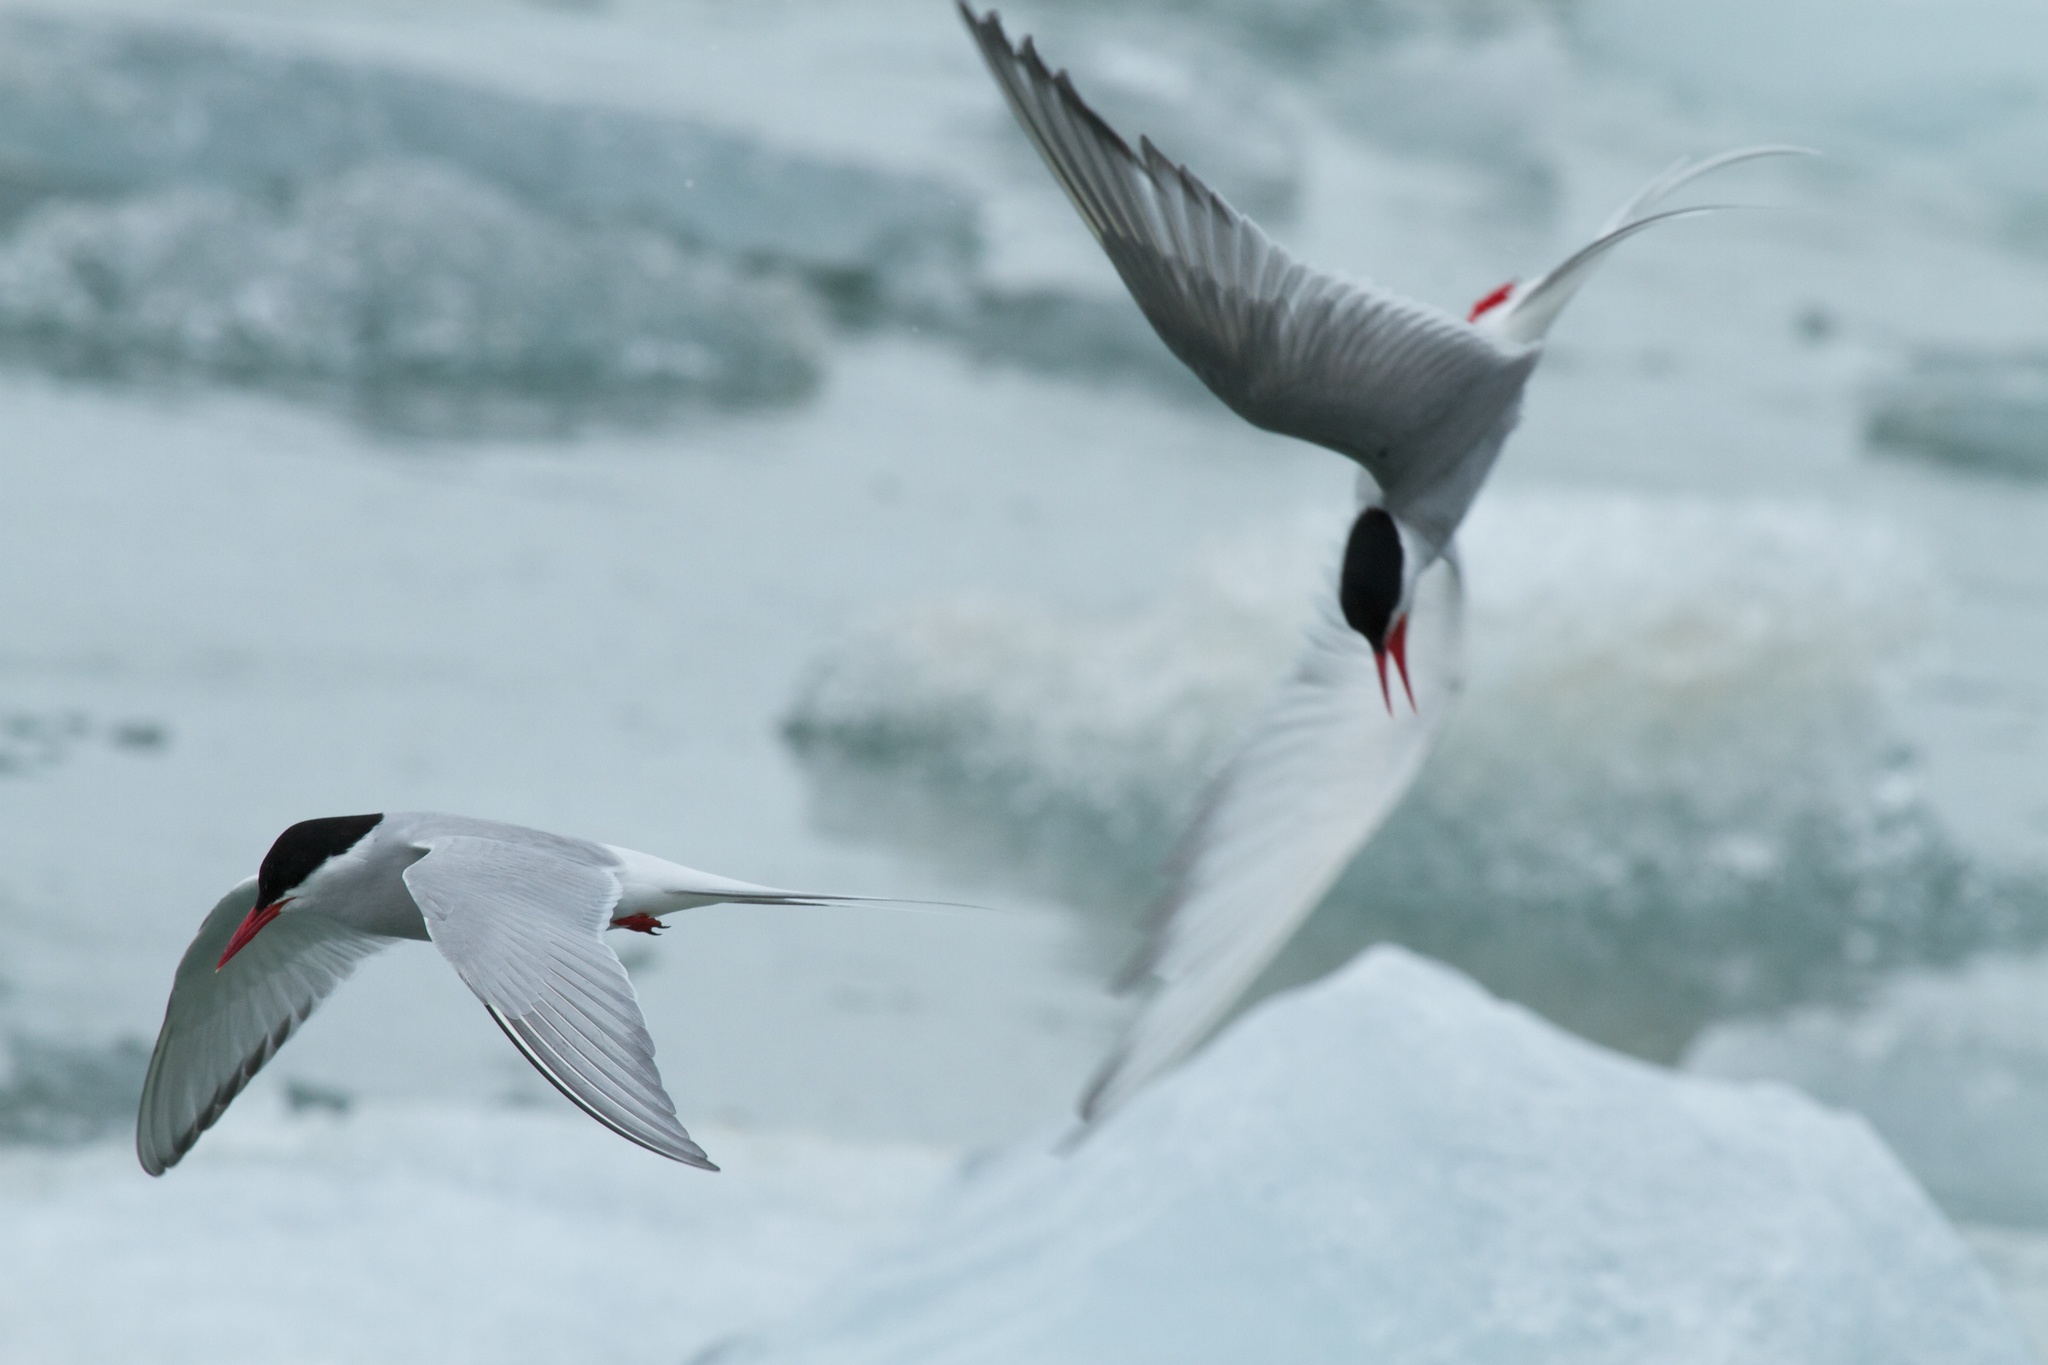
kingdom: Animalia
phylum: Chordata
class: Aves
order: Charadriiformes
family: Laridae
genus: Sterna
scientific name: Sterna paradisaea
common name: Arctic tern
